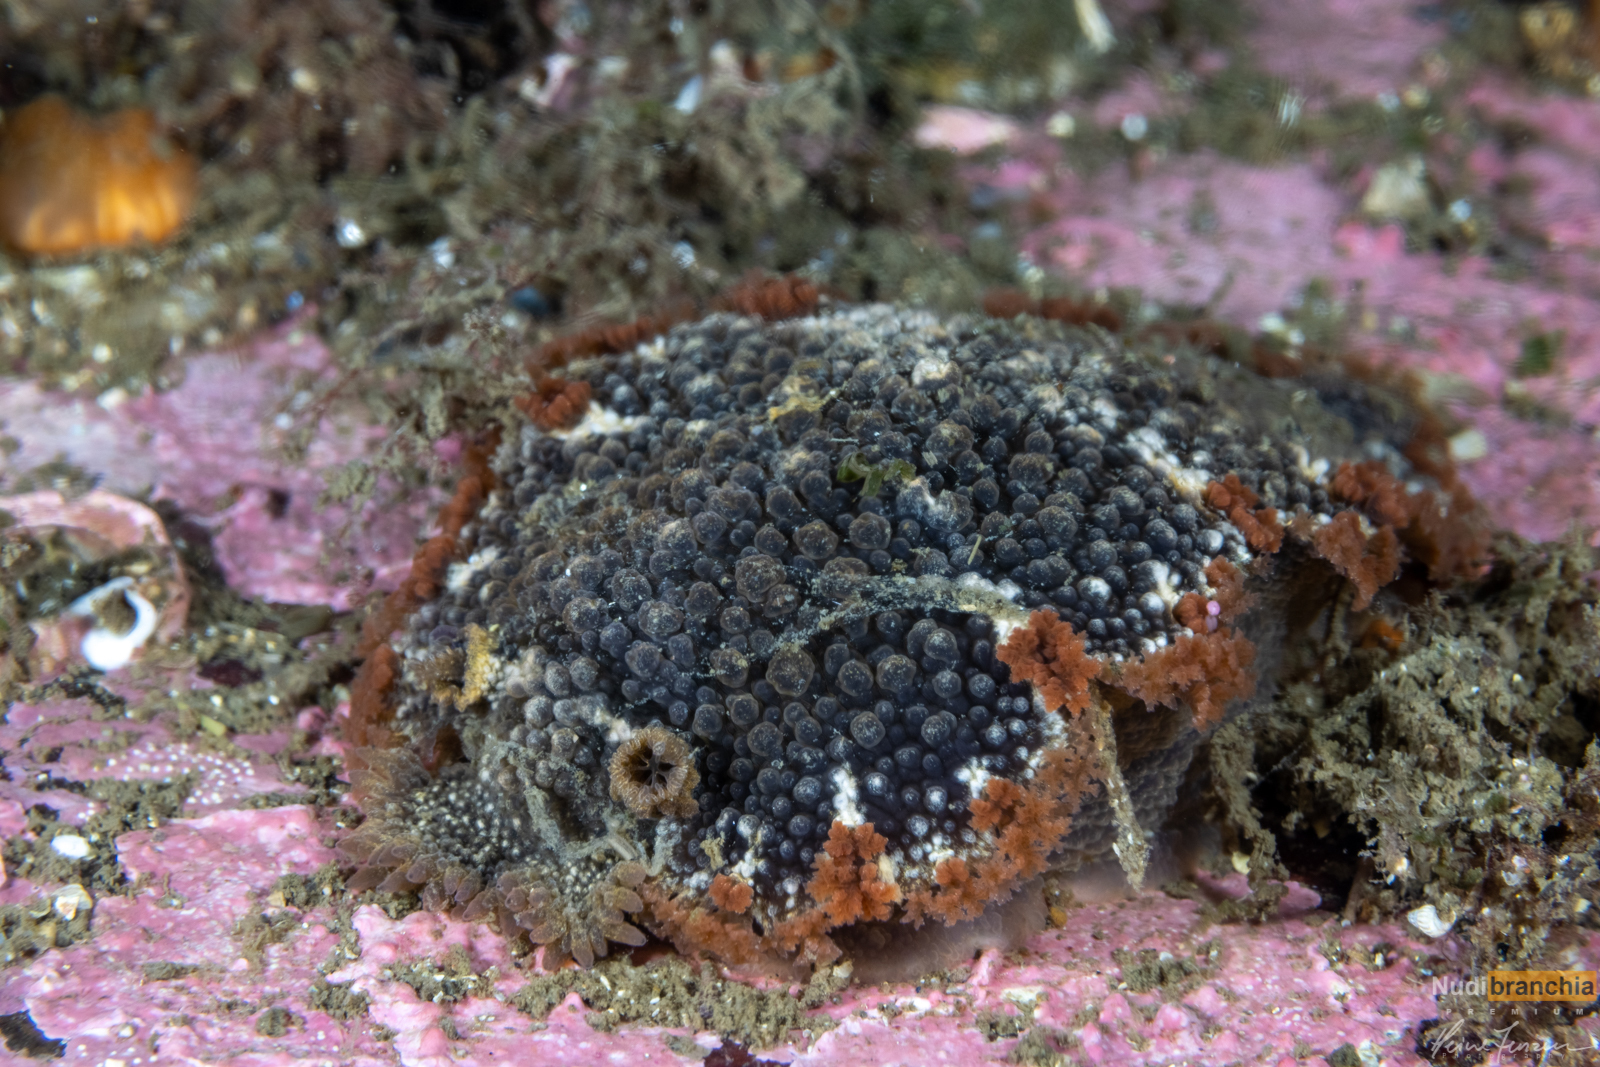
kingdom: Animalia
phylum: Mollusca
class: Gastropoda
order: Nudibranchia
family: Tritoniidae
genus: Tritonia
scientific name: Tritonia hombergii
